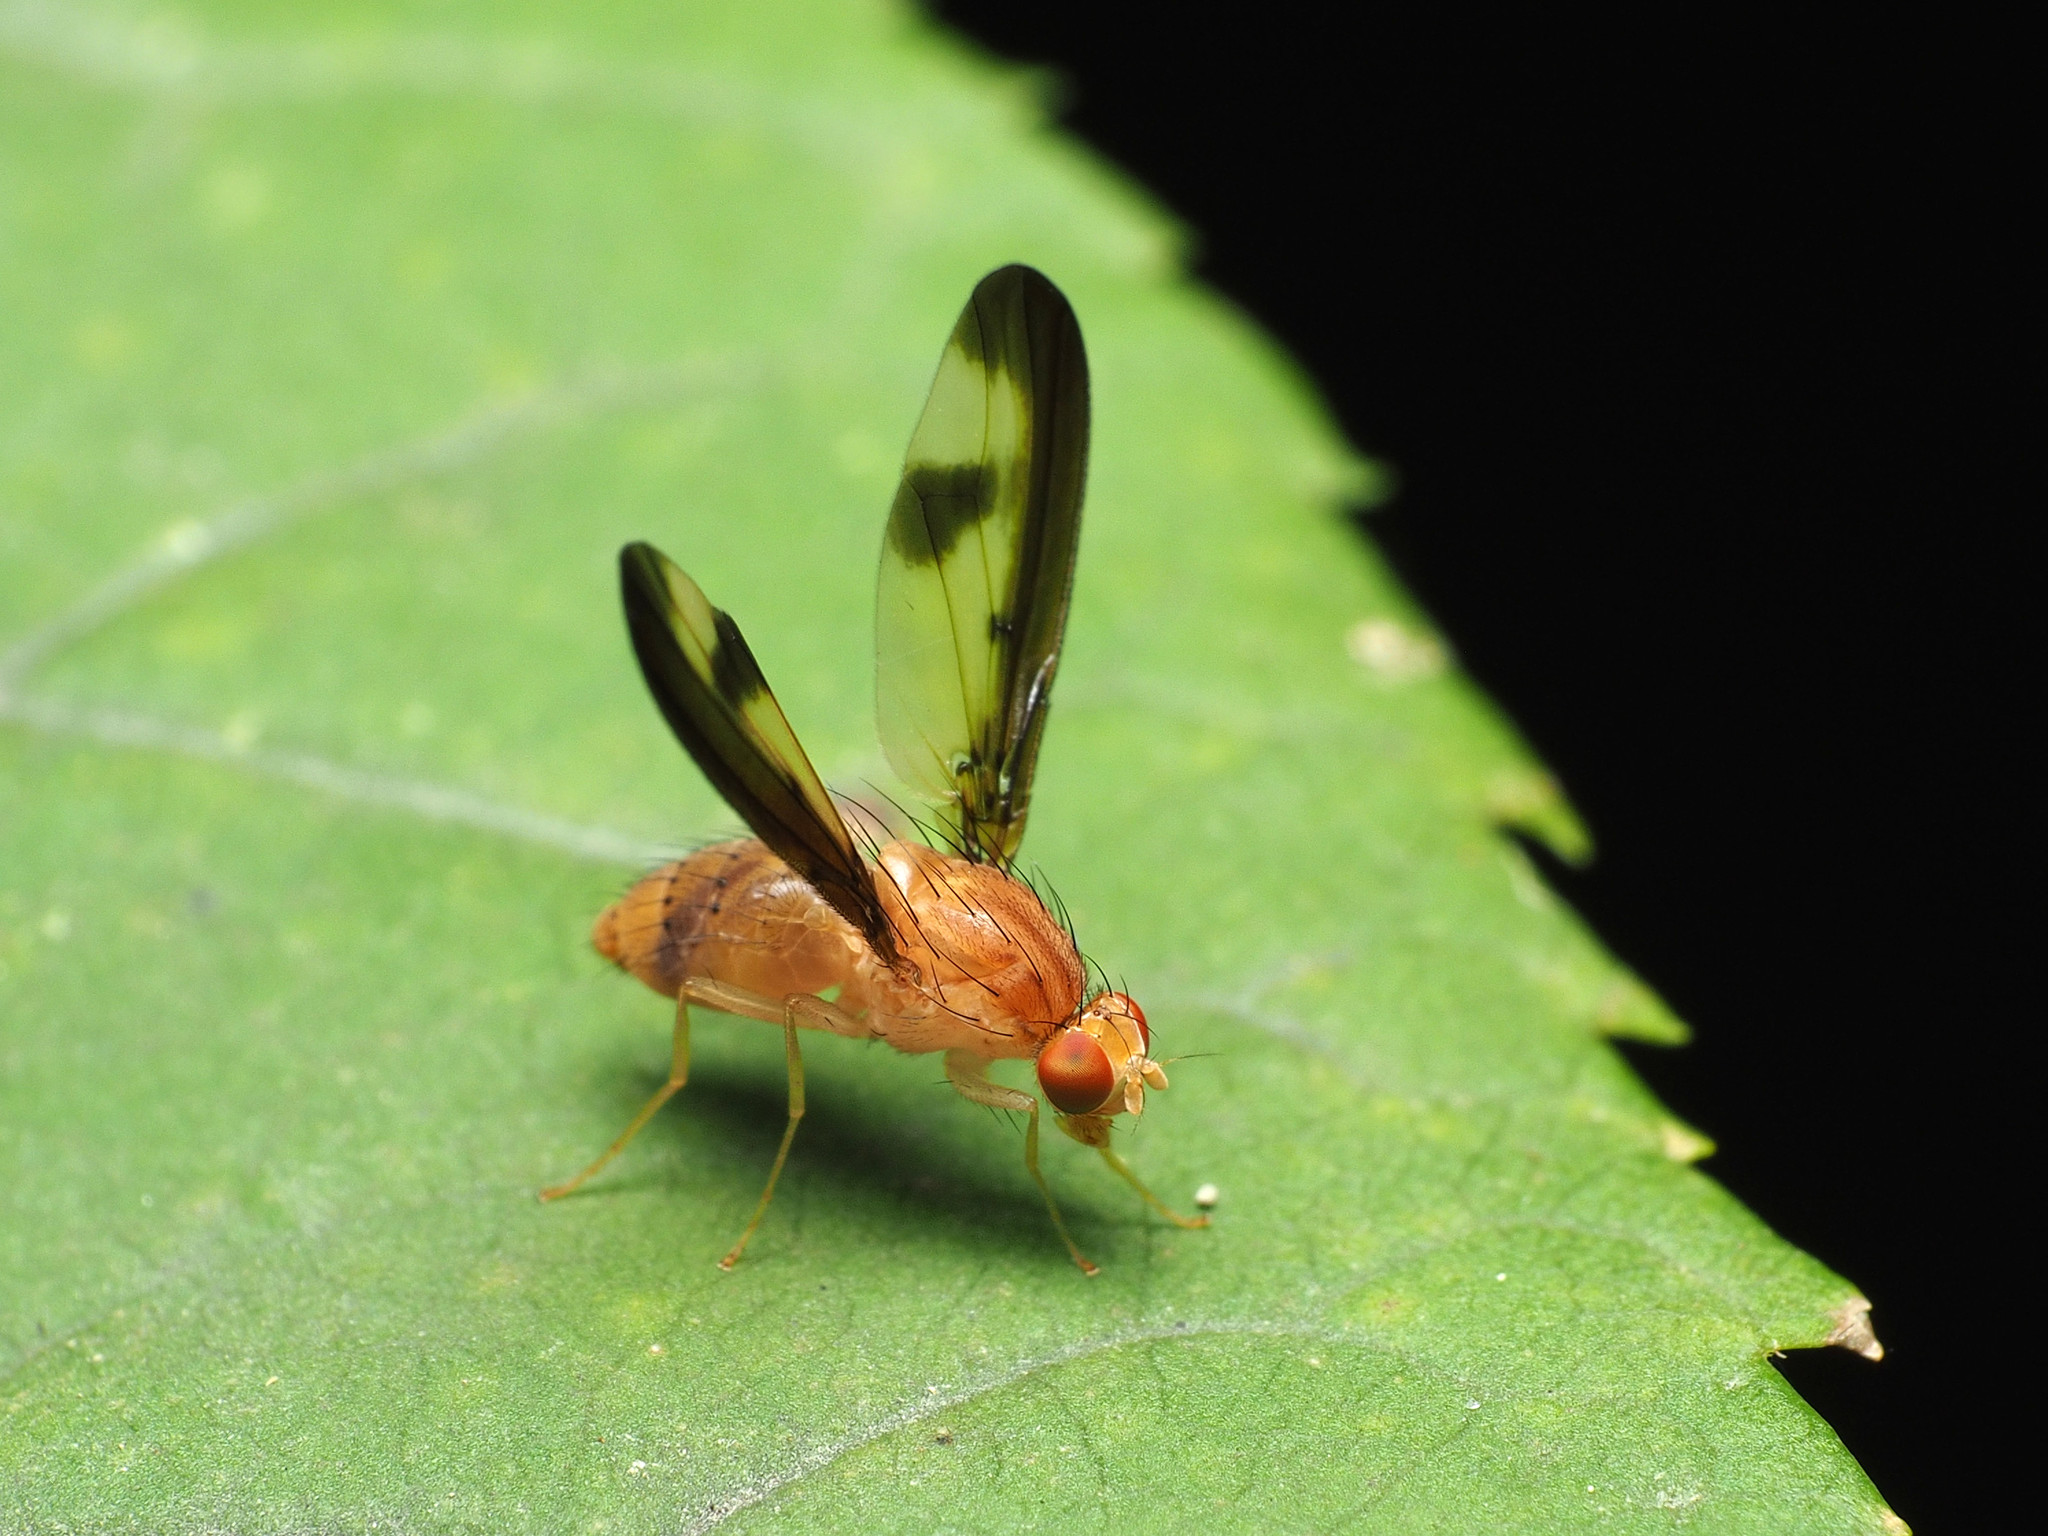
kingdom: Animalia
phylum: Arthropoda
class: Insecta
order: Diptera
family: Pallopteridae
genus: Toxonevra
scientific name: Toxonevra superba
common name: Antlered flutter fly
